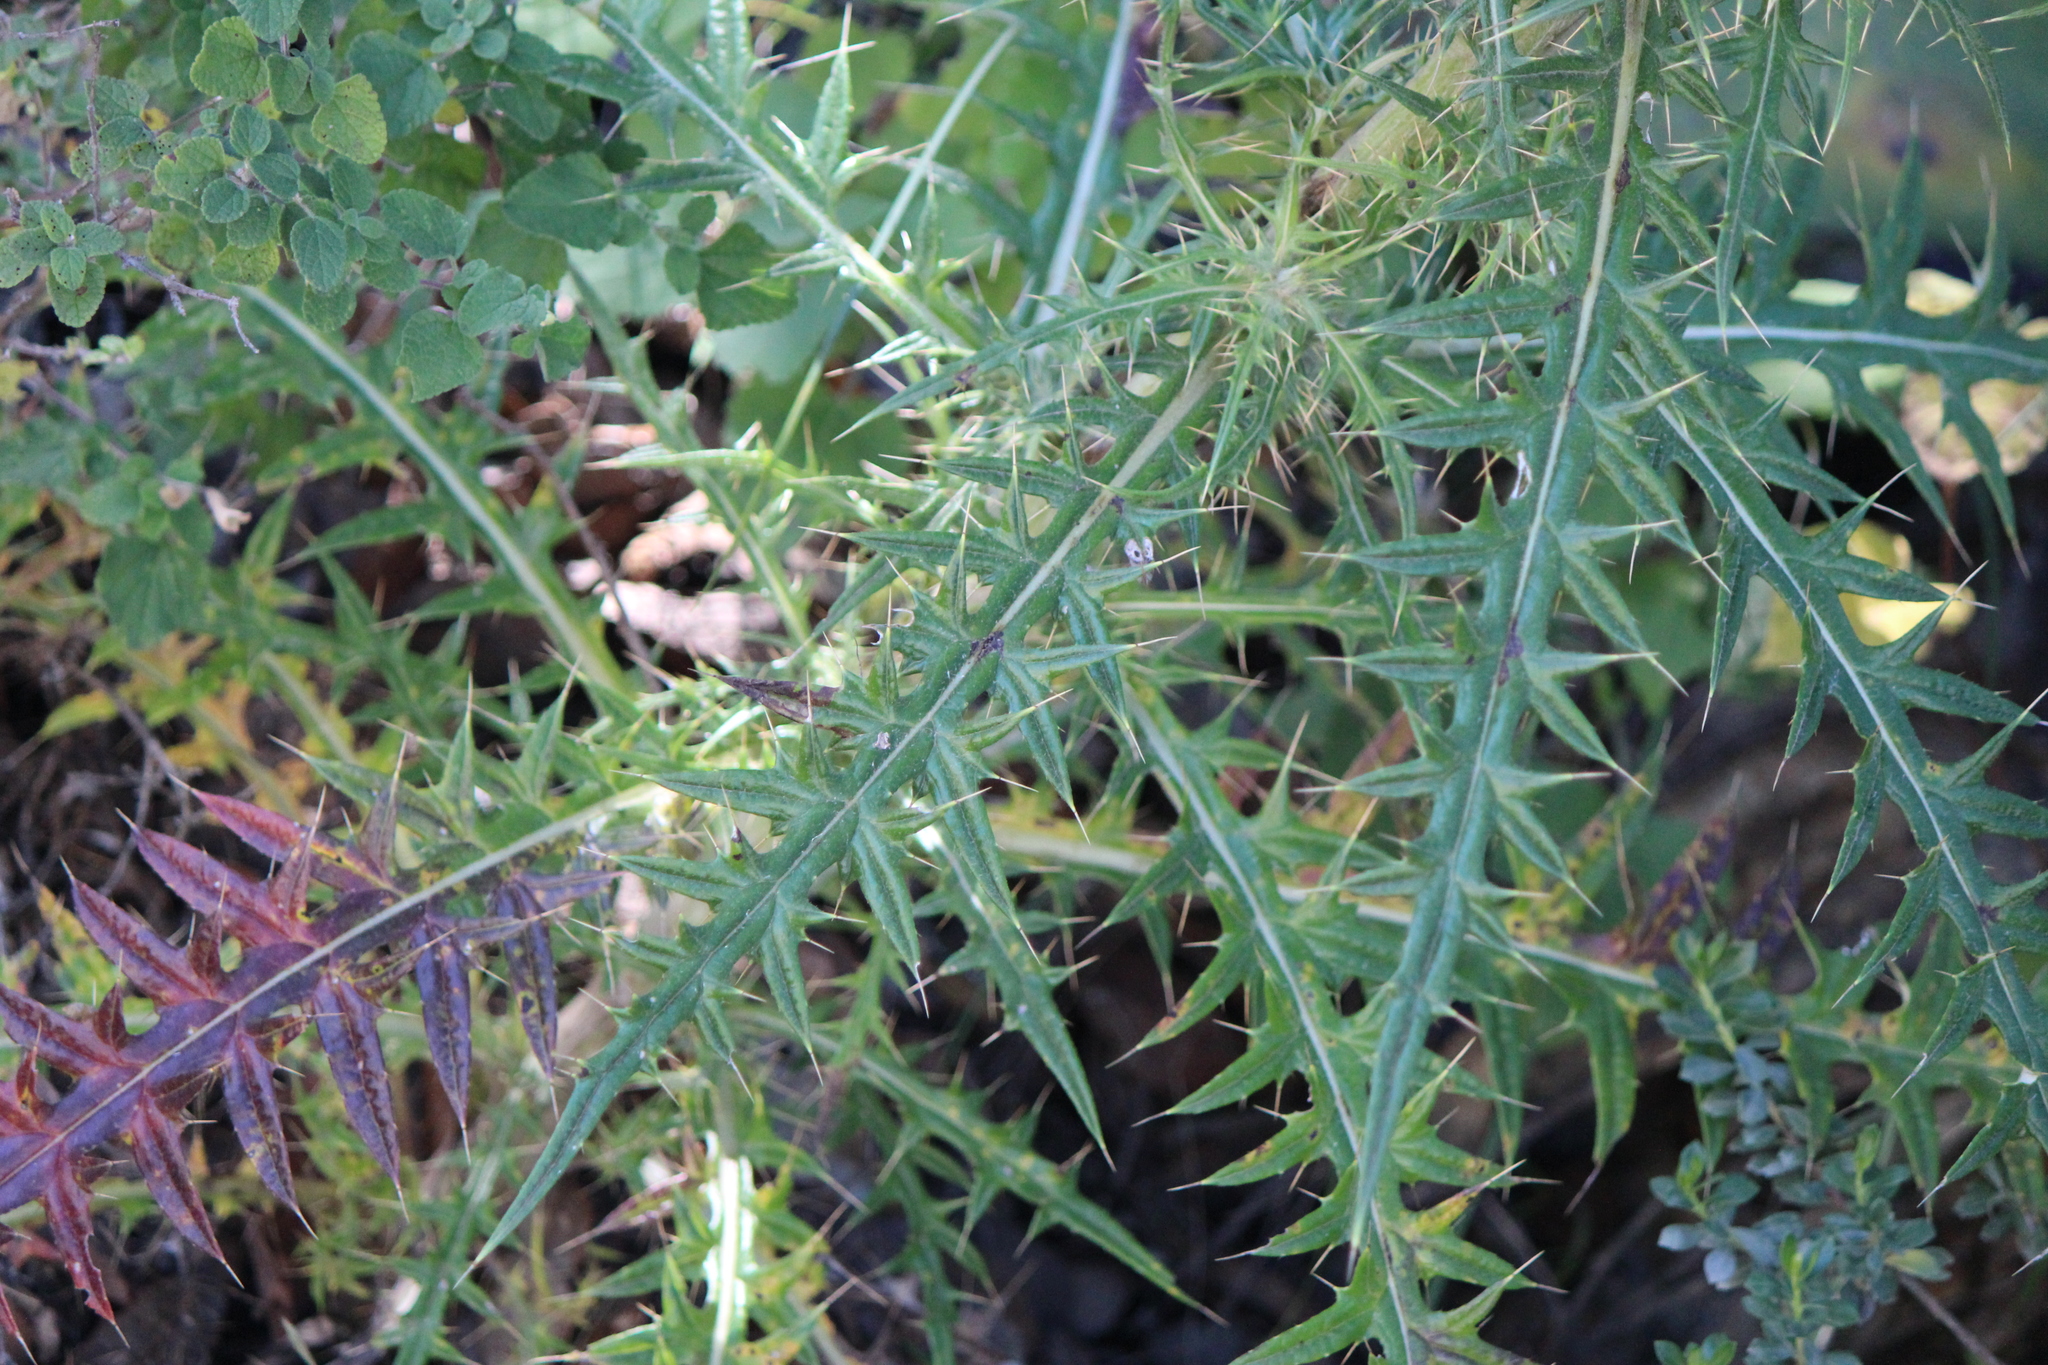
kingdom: Plantae
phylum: Tracheophyta
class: Magnoliopsida
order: Asterales
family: Asteraceae
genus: Cirsium
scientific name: Cirsium pinetorum
